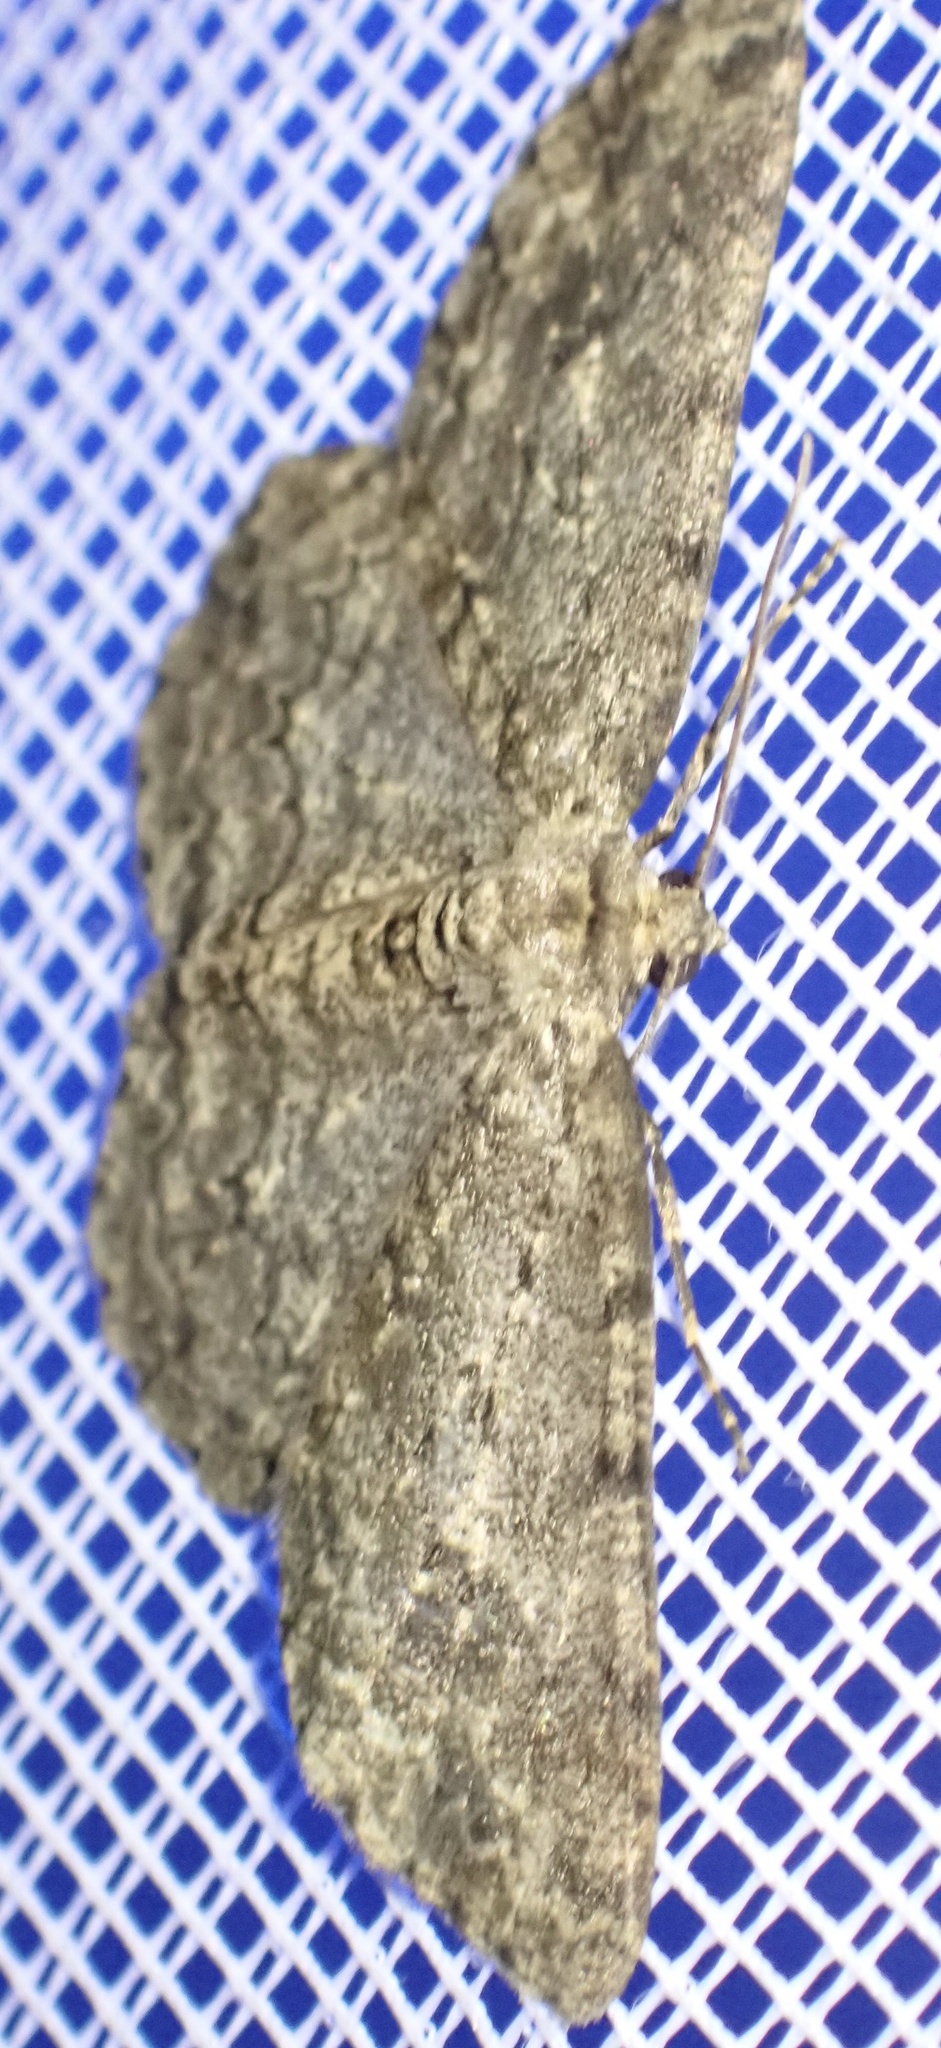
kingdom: Animalia
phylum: Arthropoda
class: Insecta
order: Lepidoptera
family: Geometridae
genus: Ectropis
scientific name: Ectropis crepuscularia
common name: Engrailed
